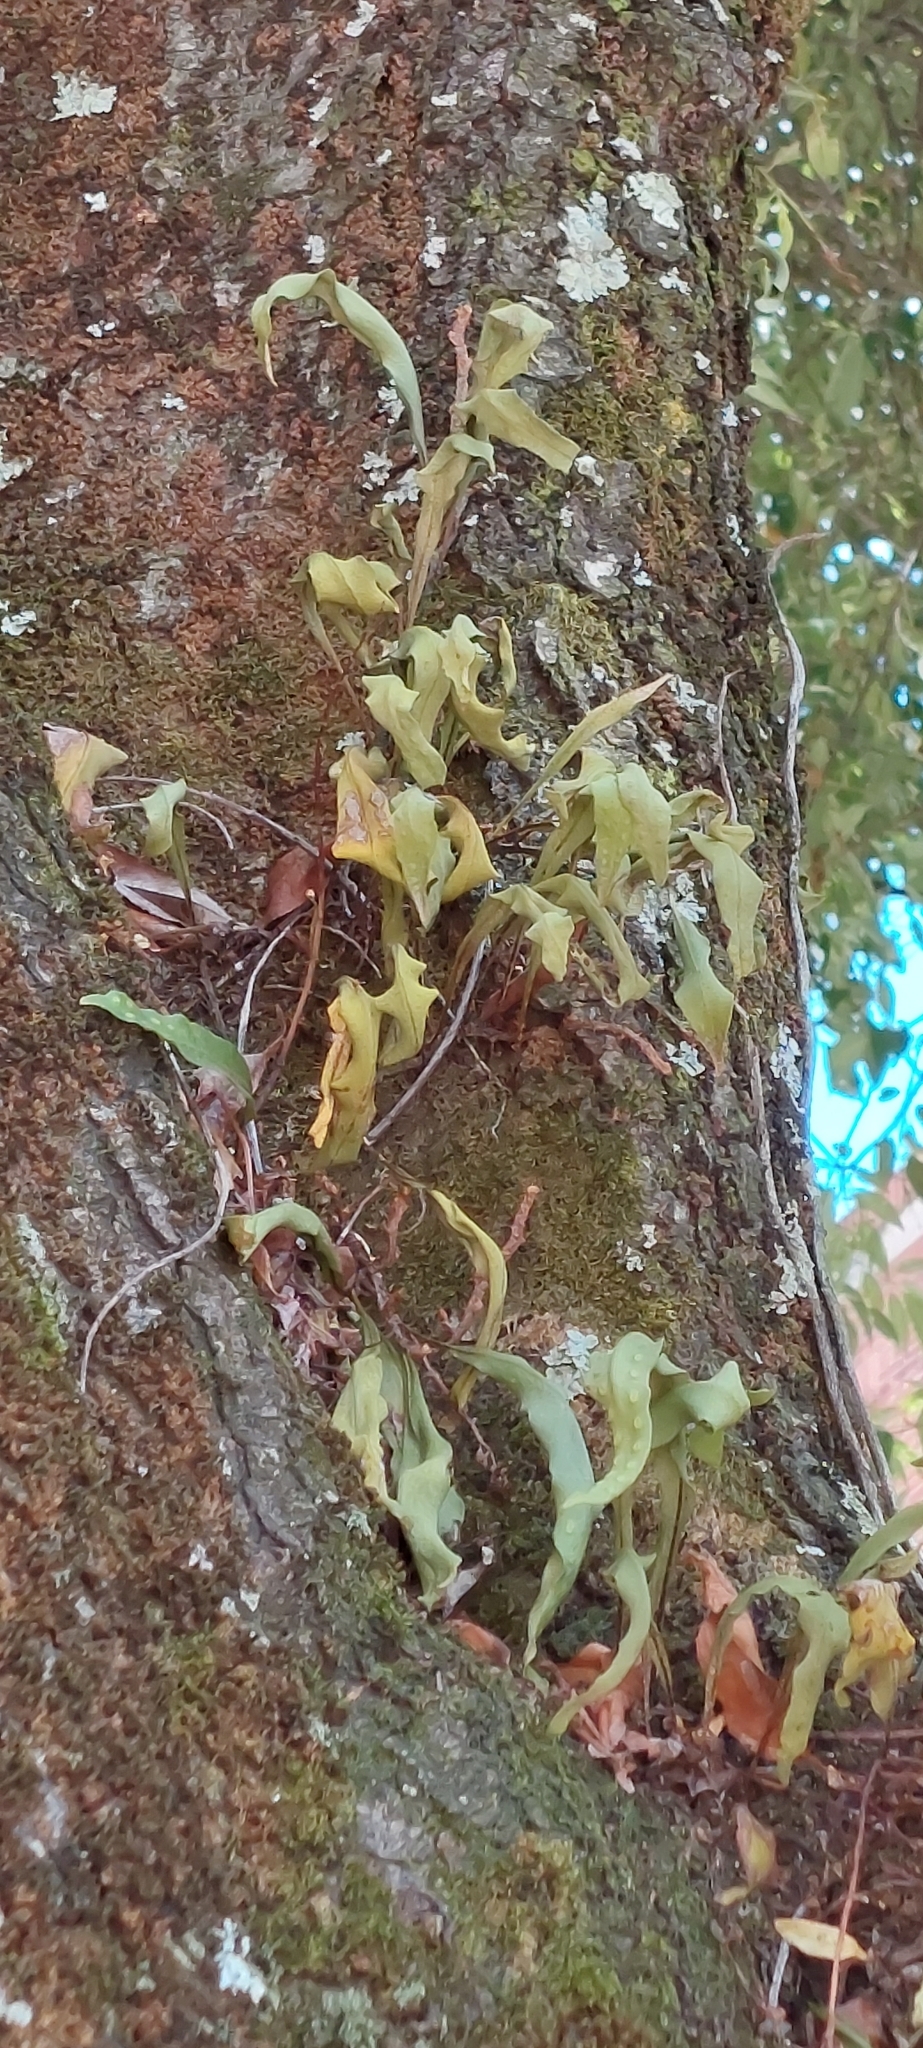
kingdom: Plantae
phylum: Tracheophyta
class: Polypodiopsida
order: Polypodiales
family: Polypodiaceae
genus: Pleopeltis
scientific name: Pleopeltis macrocarpa
